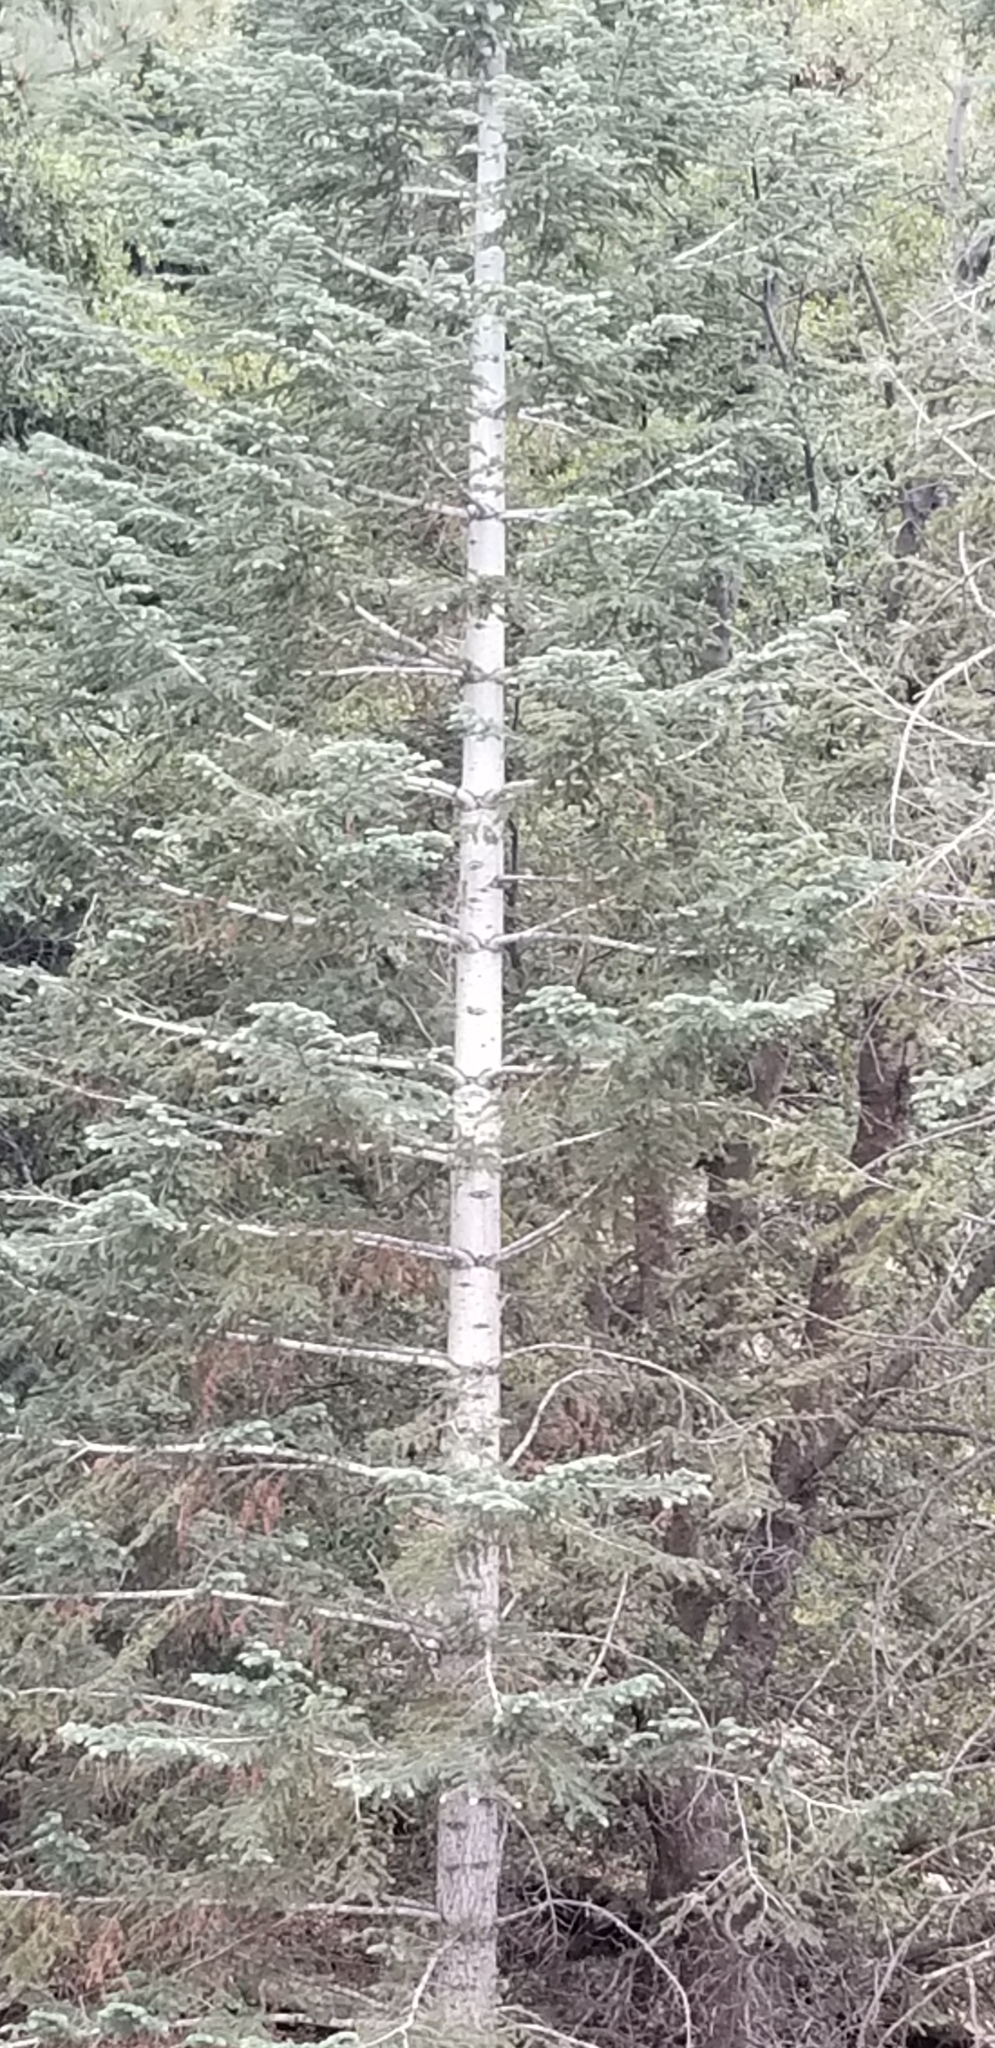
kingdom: Plantae
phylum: Tracheophyta
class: Pinopsida
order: Pinales
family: Pinaceae
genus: Abies
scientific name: Abies concolor
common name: Colorado fir
